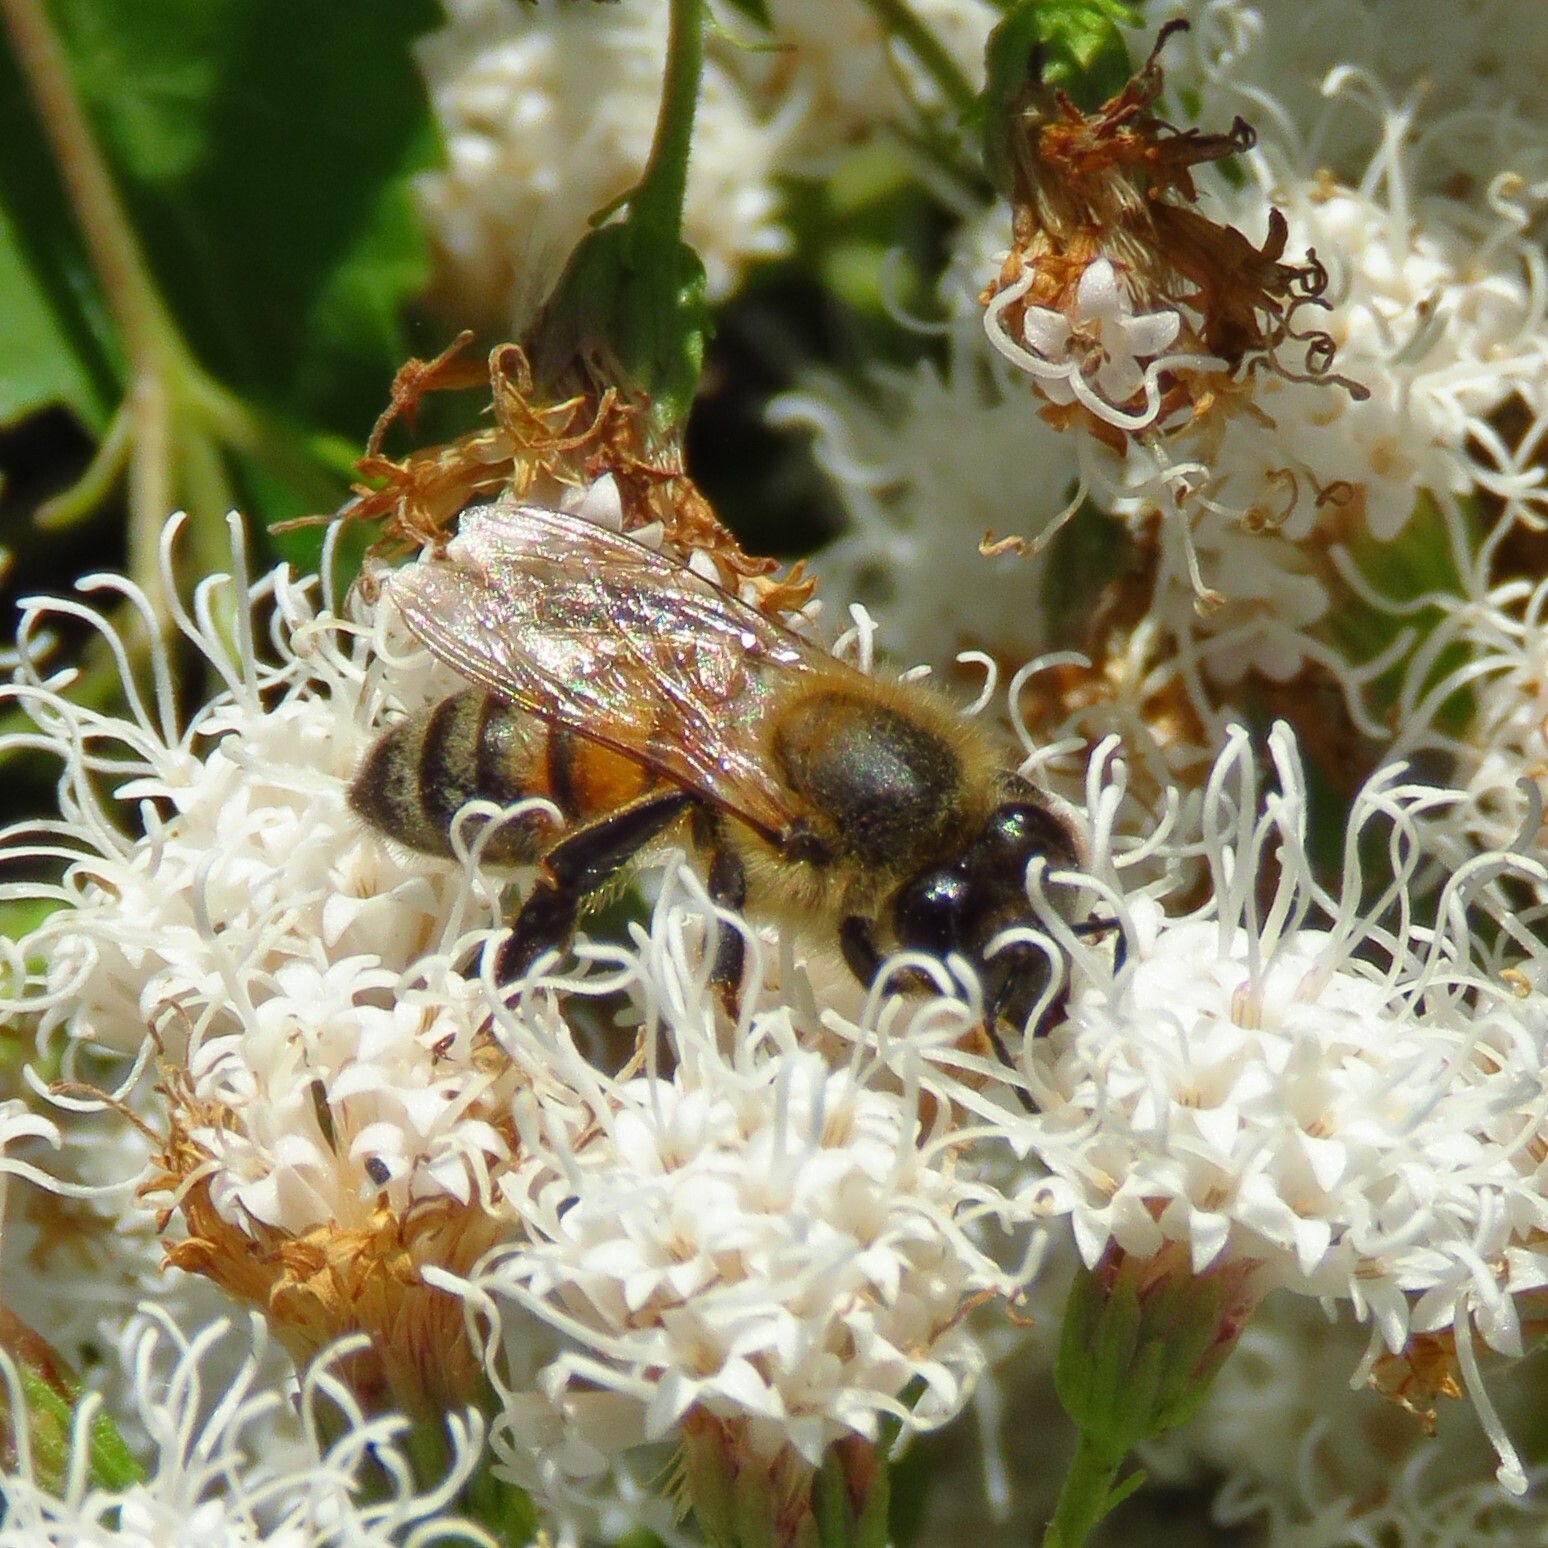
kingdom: Animalia
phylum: Arthropoda
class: Insecta
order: Hymenoptera
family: Apidae
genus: Apis
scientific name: Apis mellifera
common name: Honey bee
